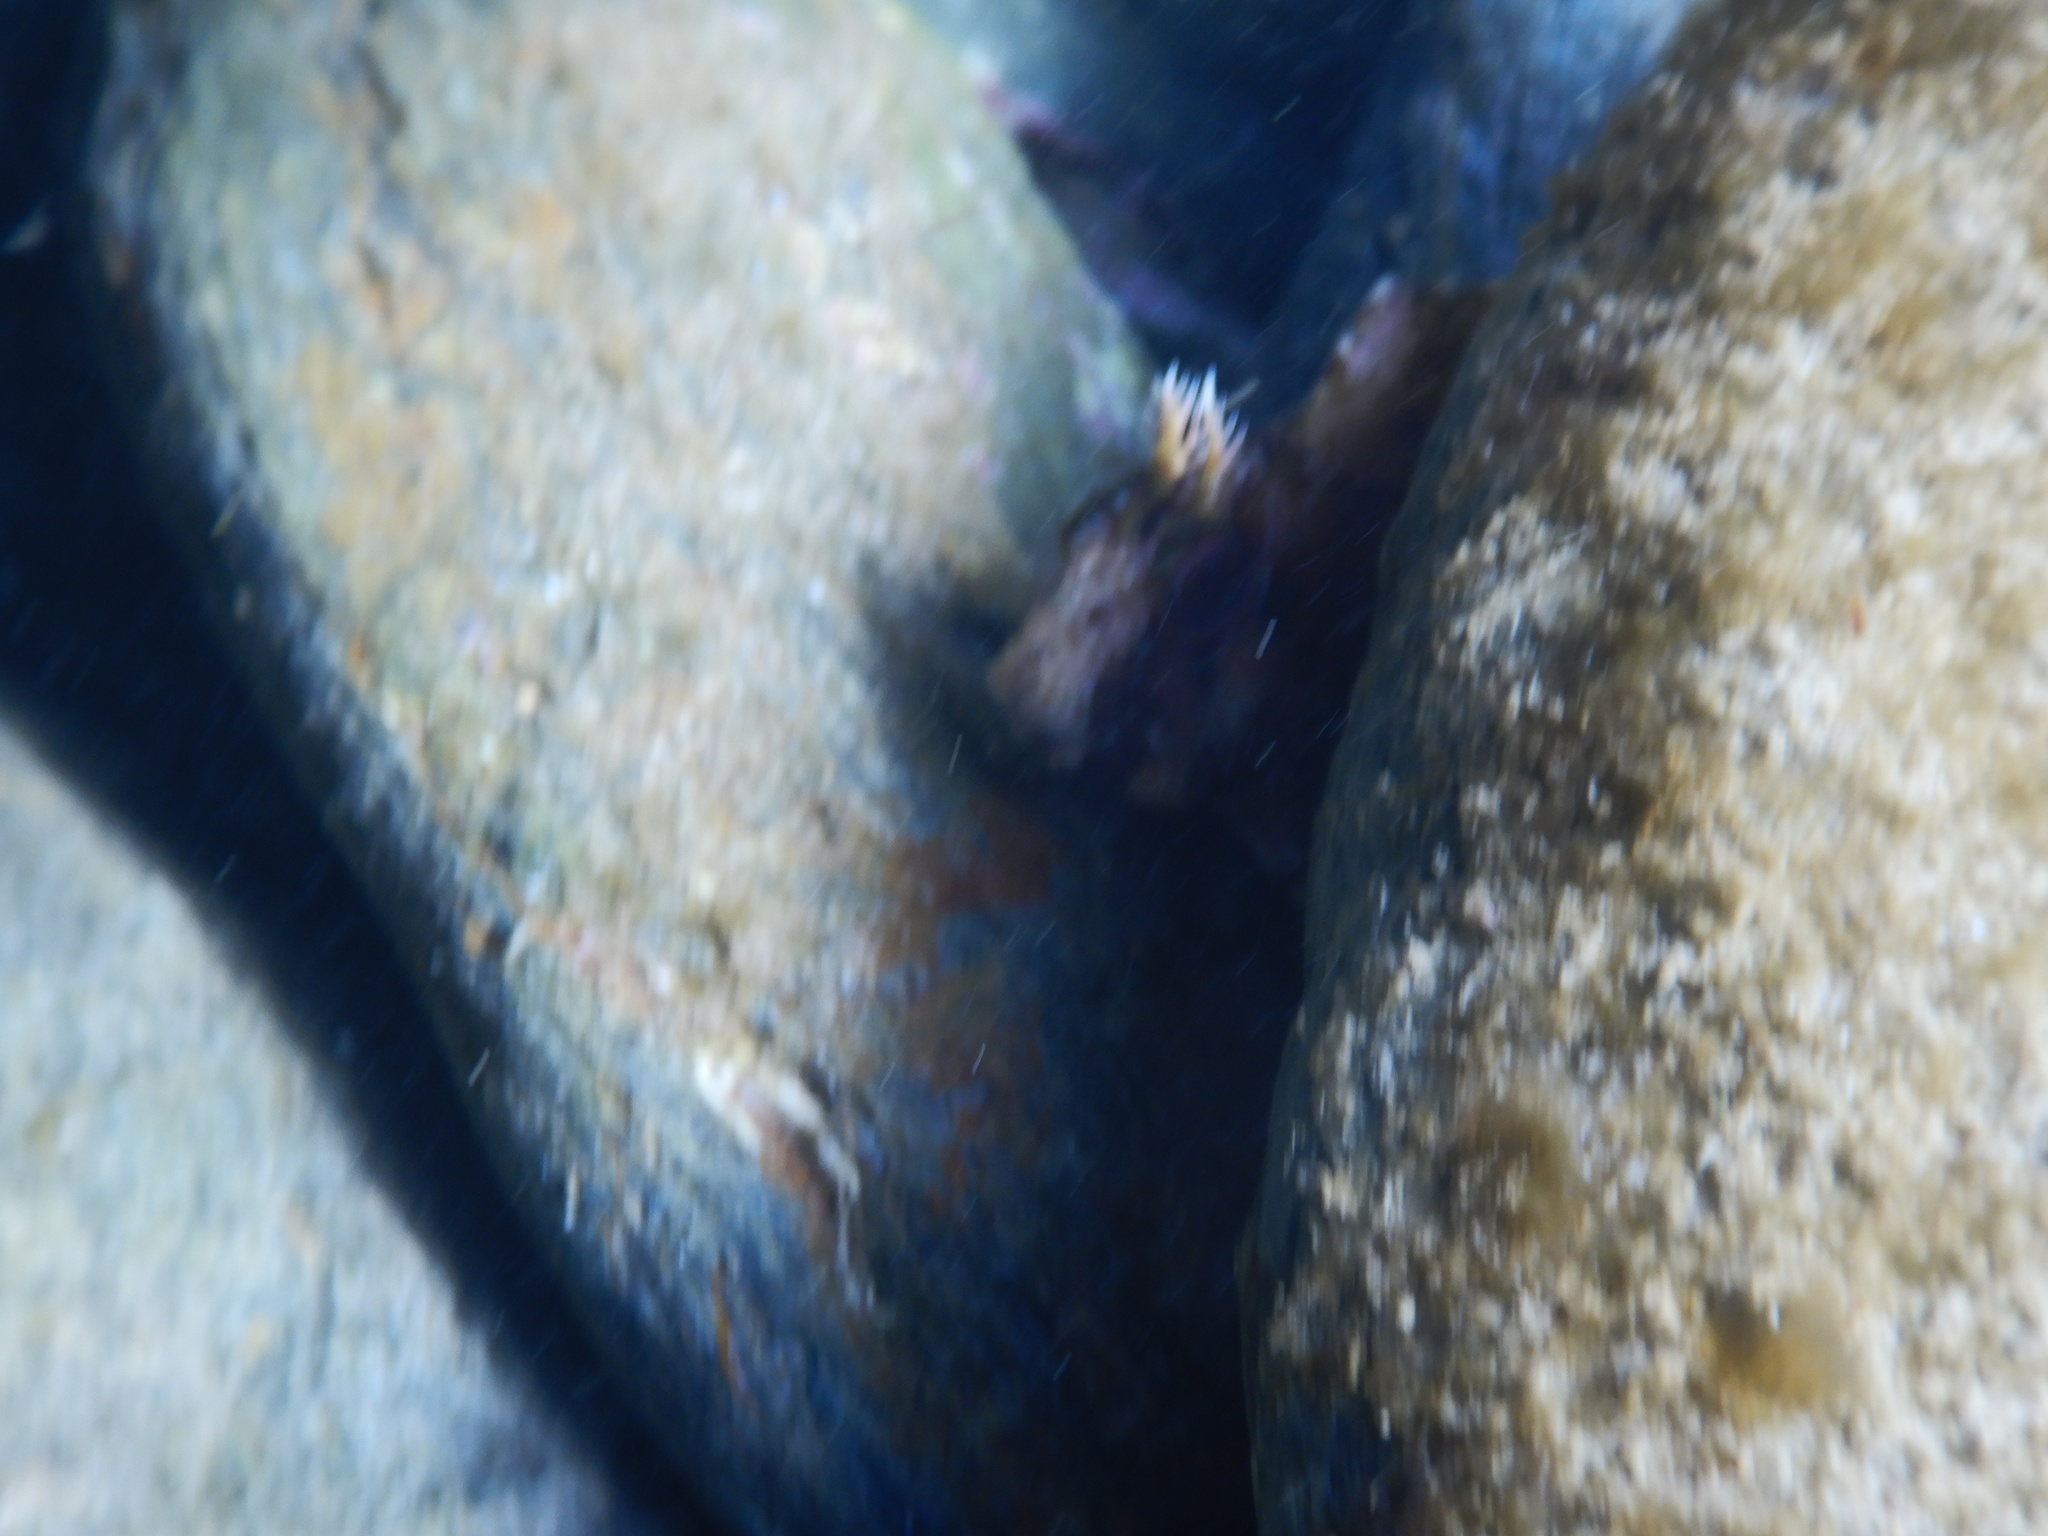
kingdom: Animalia
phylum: Chordata
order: Perciformes
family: Blenniidae
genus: Parablennius
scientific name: Parablennius gattorugine
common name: Tompot blenny
